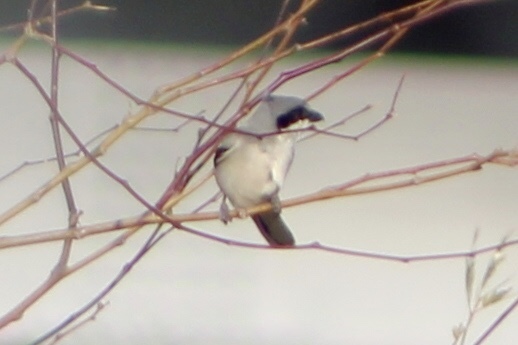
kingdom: Animalia
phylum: Chordata
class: Aves
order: Passeriformes
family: Laniidae
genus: Lanius
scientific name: Lanius ludovicianus
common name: Loggerhead shrike
